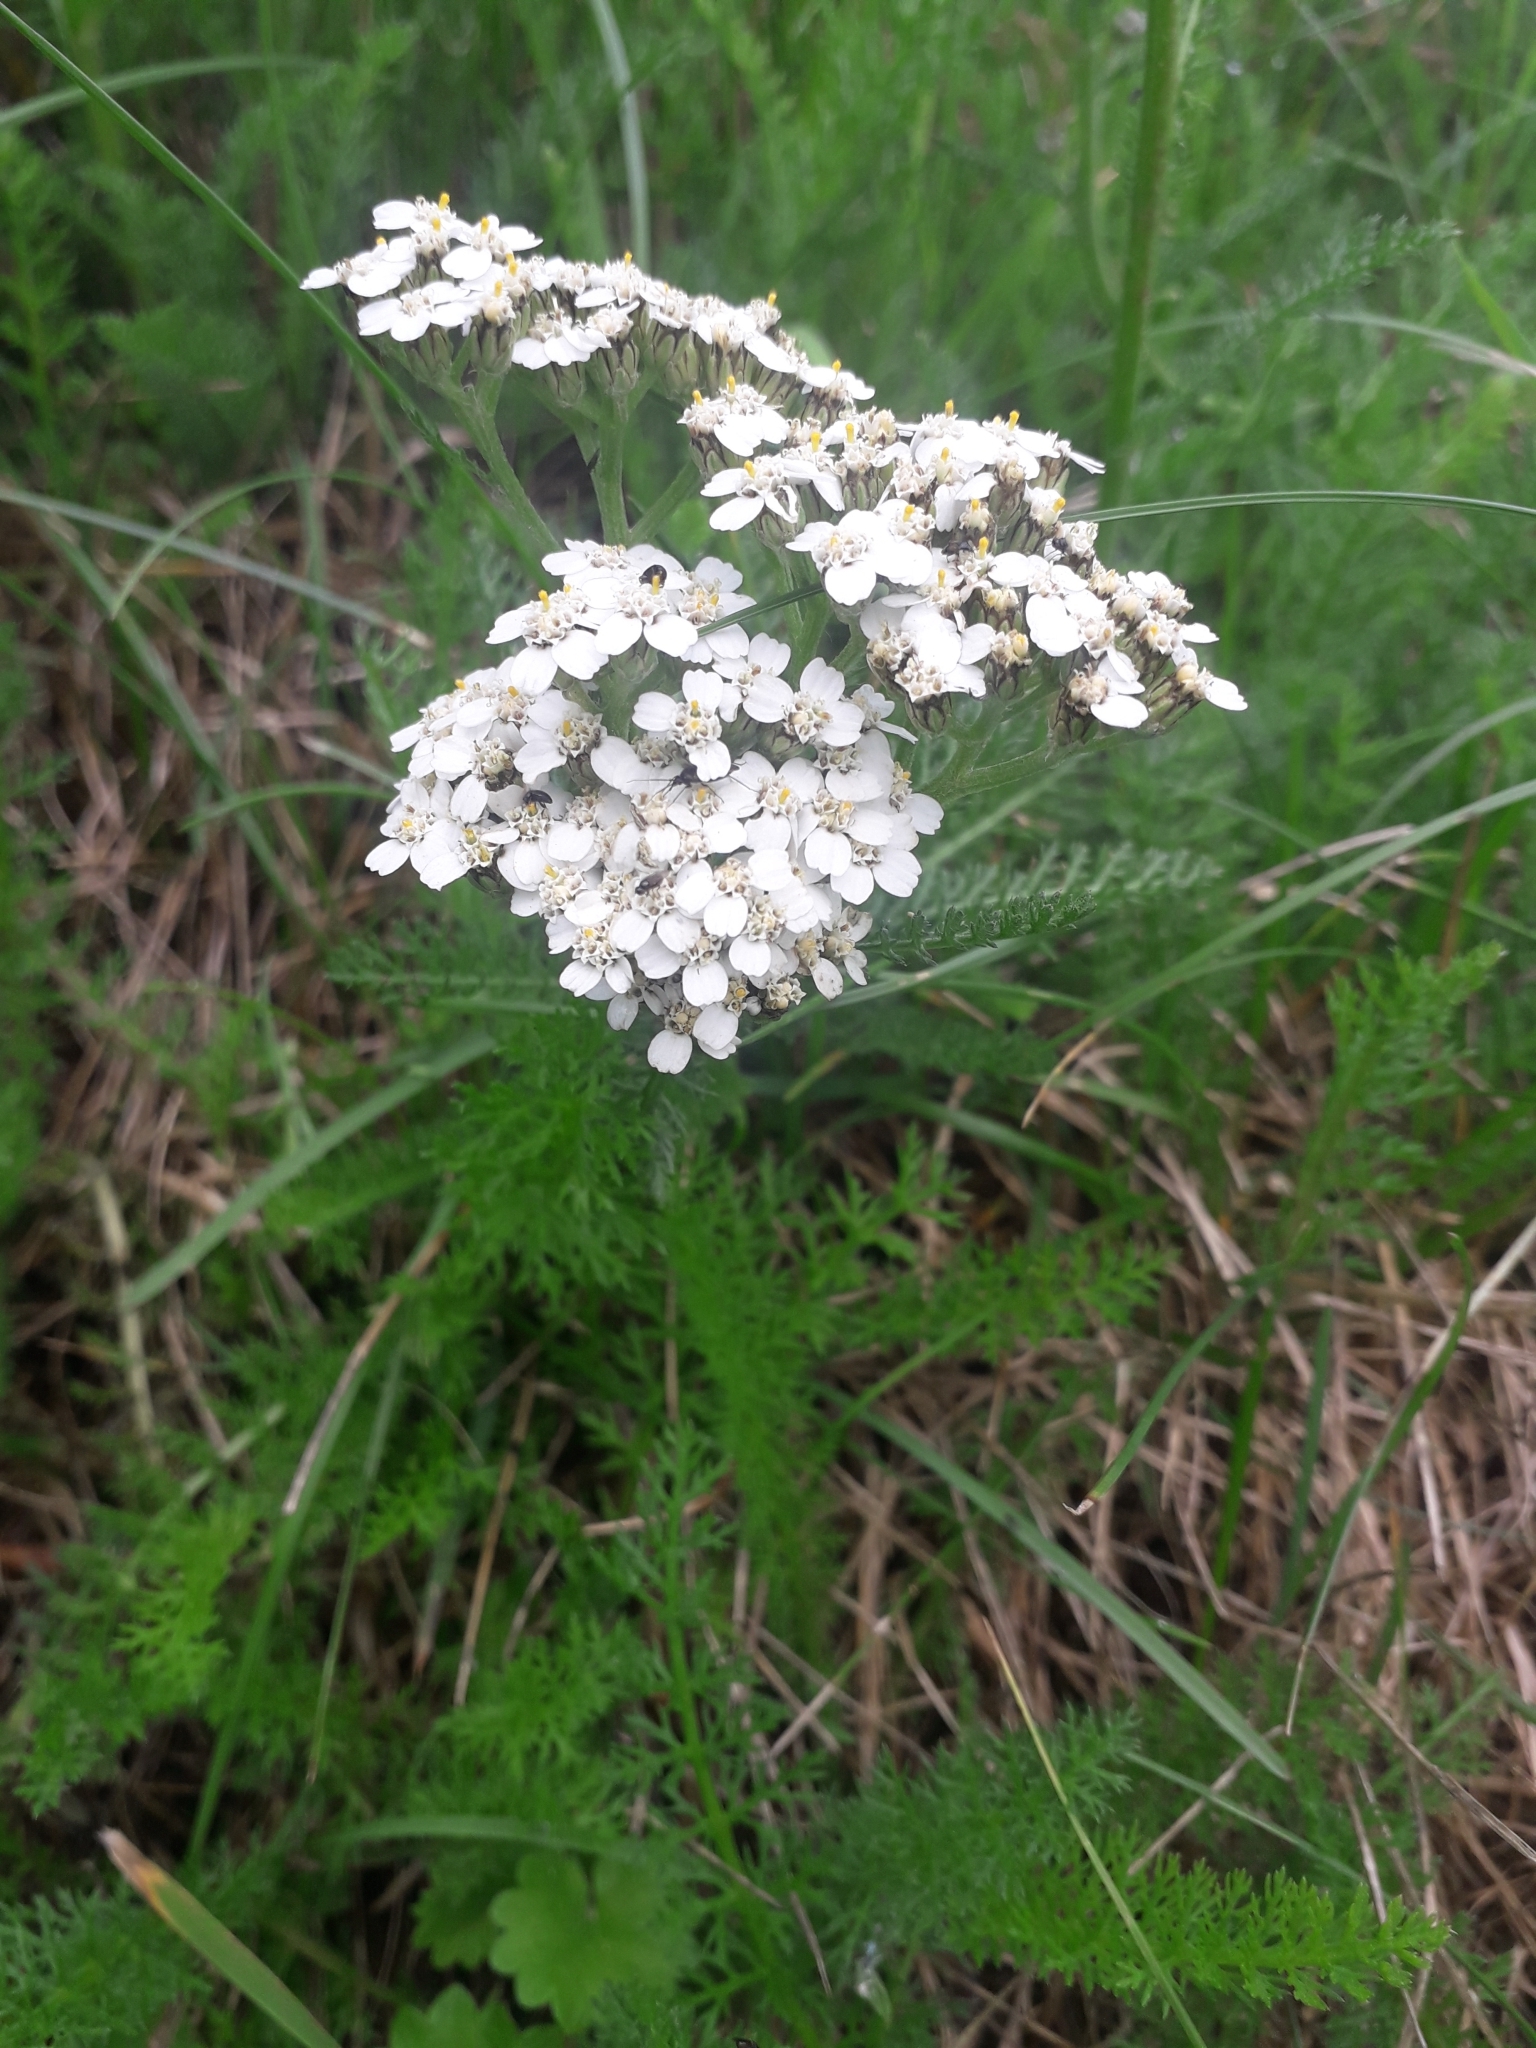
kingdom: Plantae
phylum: Tracheophyta
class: Magnoliopsida
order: Asterales
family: Asteraceae
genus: Achillea
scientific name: Achillea millefolium
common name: Yarrow
